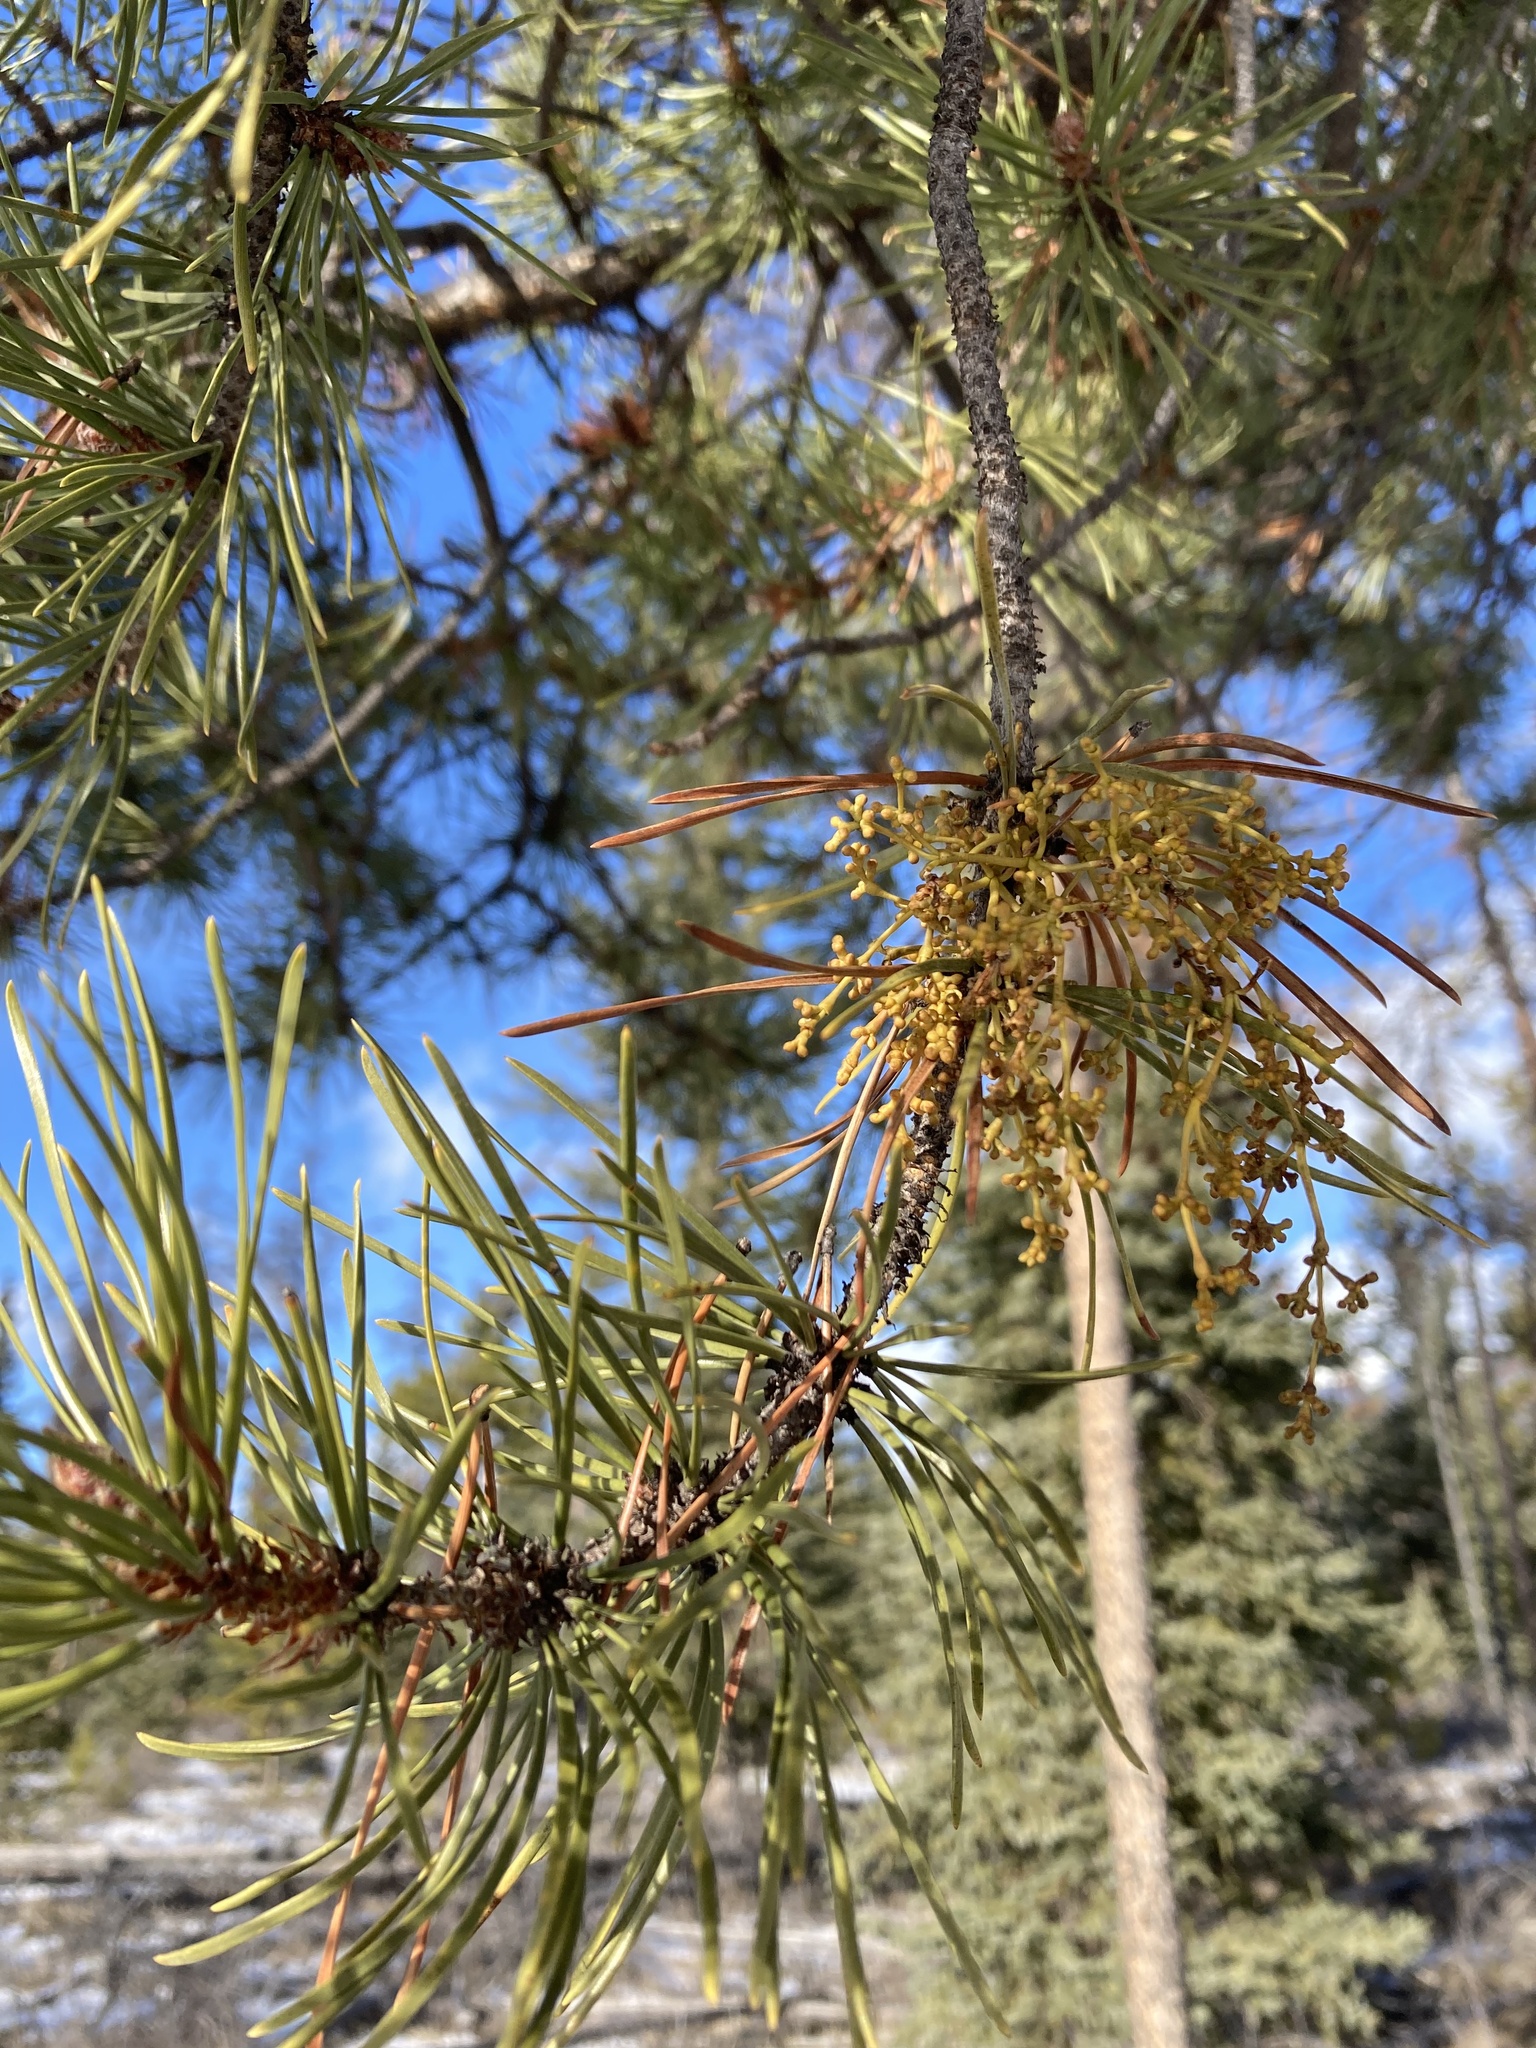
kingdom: Plantae
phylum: Tracheophyta
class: Magnoliopsida
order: Santalales
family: Viscaceae
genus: Arceuthobium
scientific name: Arceuthobium americanum
